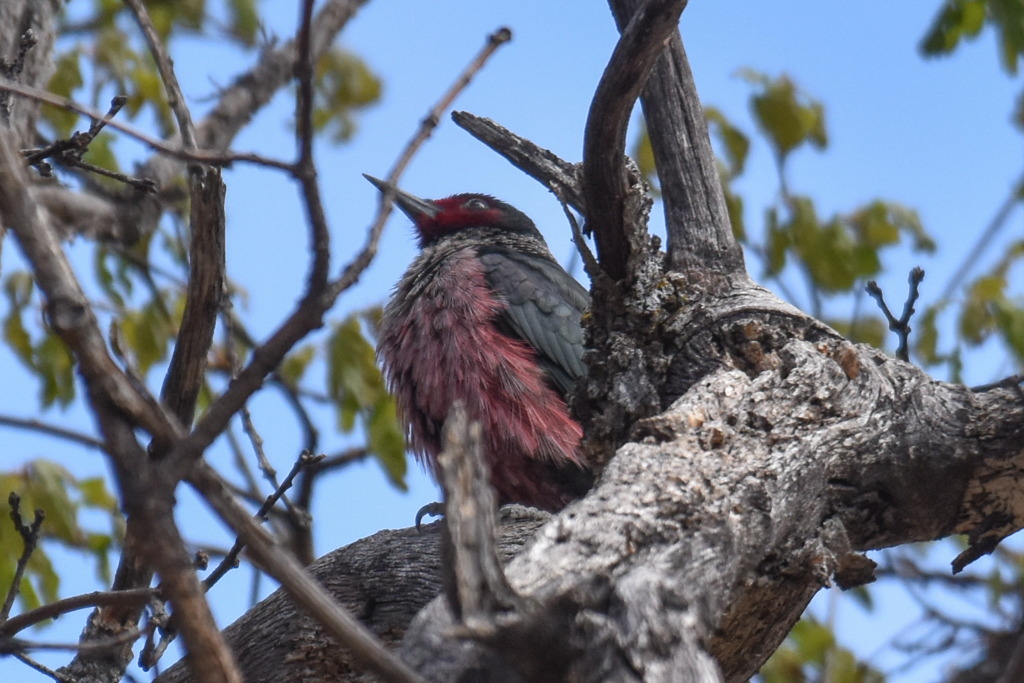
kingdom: Animalia
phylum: Chordata
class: Aves
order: Piciformes
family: Picidae
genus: Melanerpes
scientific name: Melanerpes lewis
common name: Lewis's woodpecker
